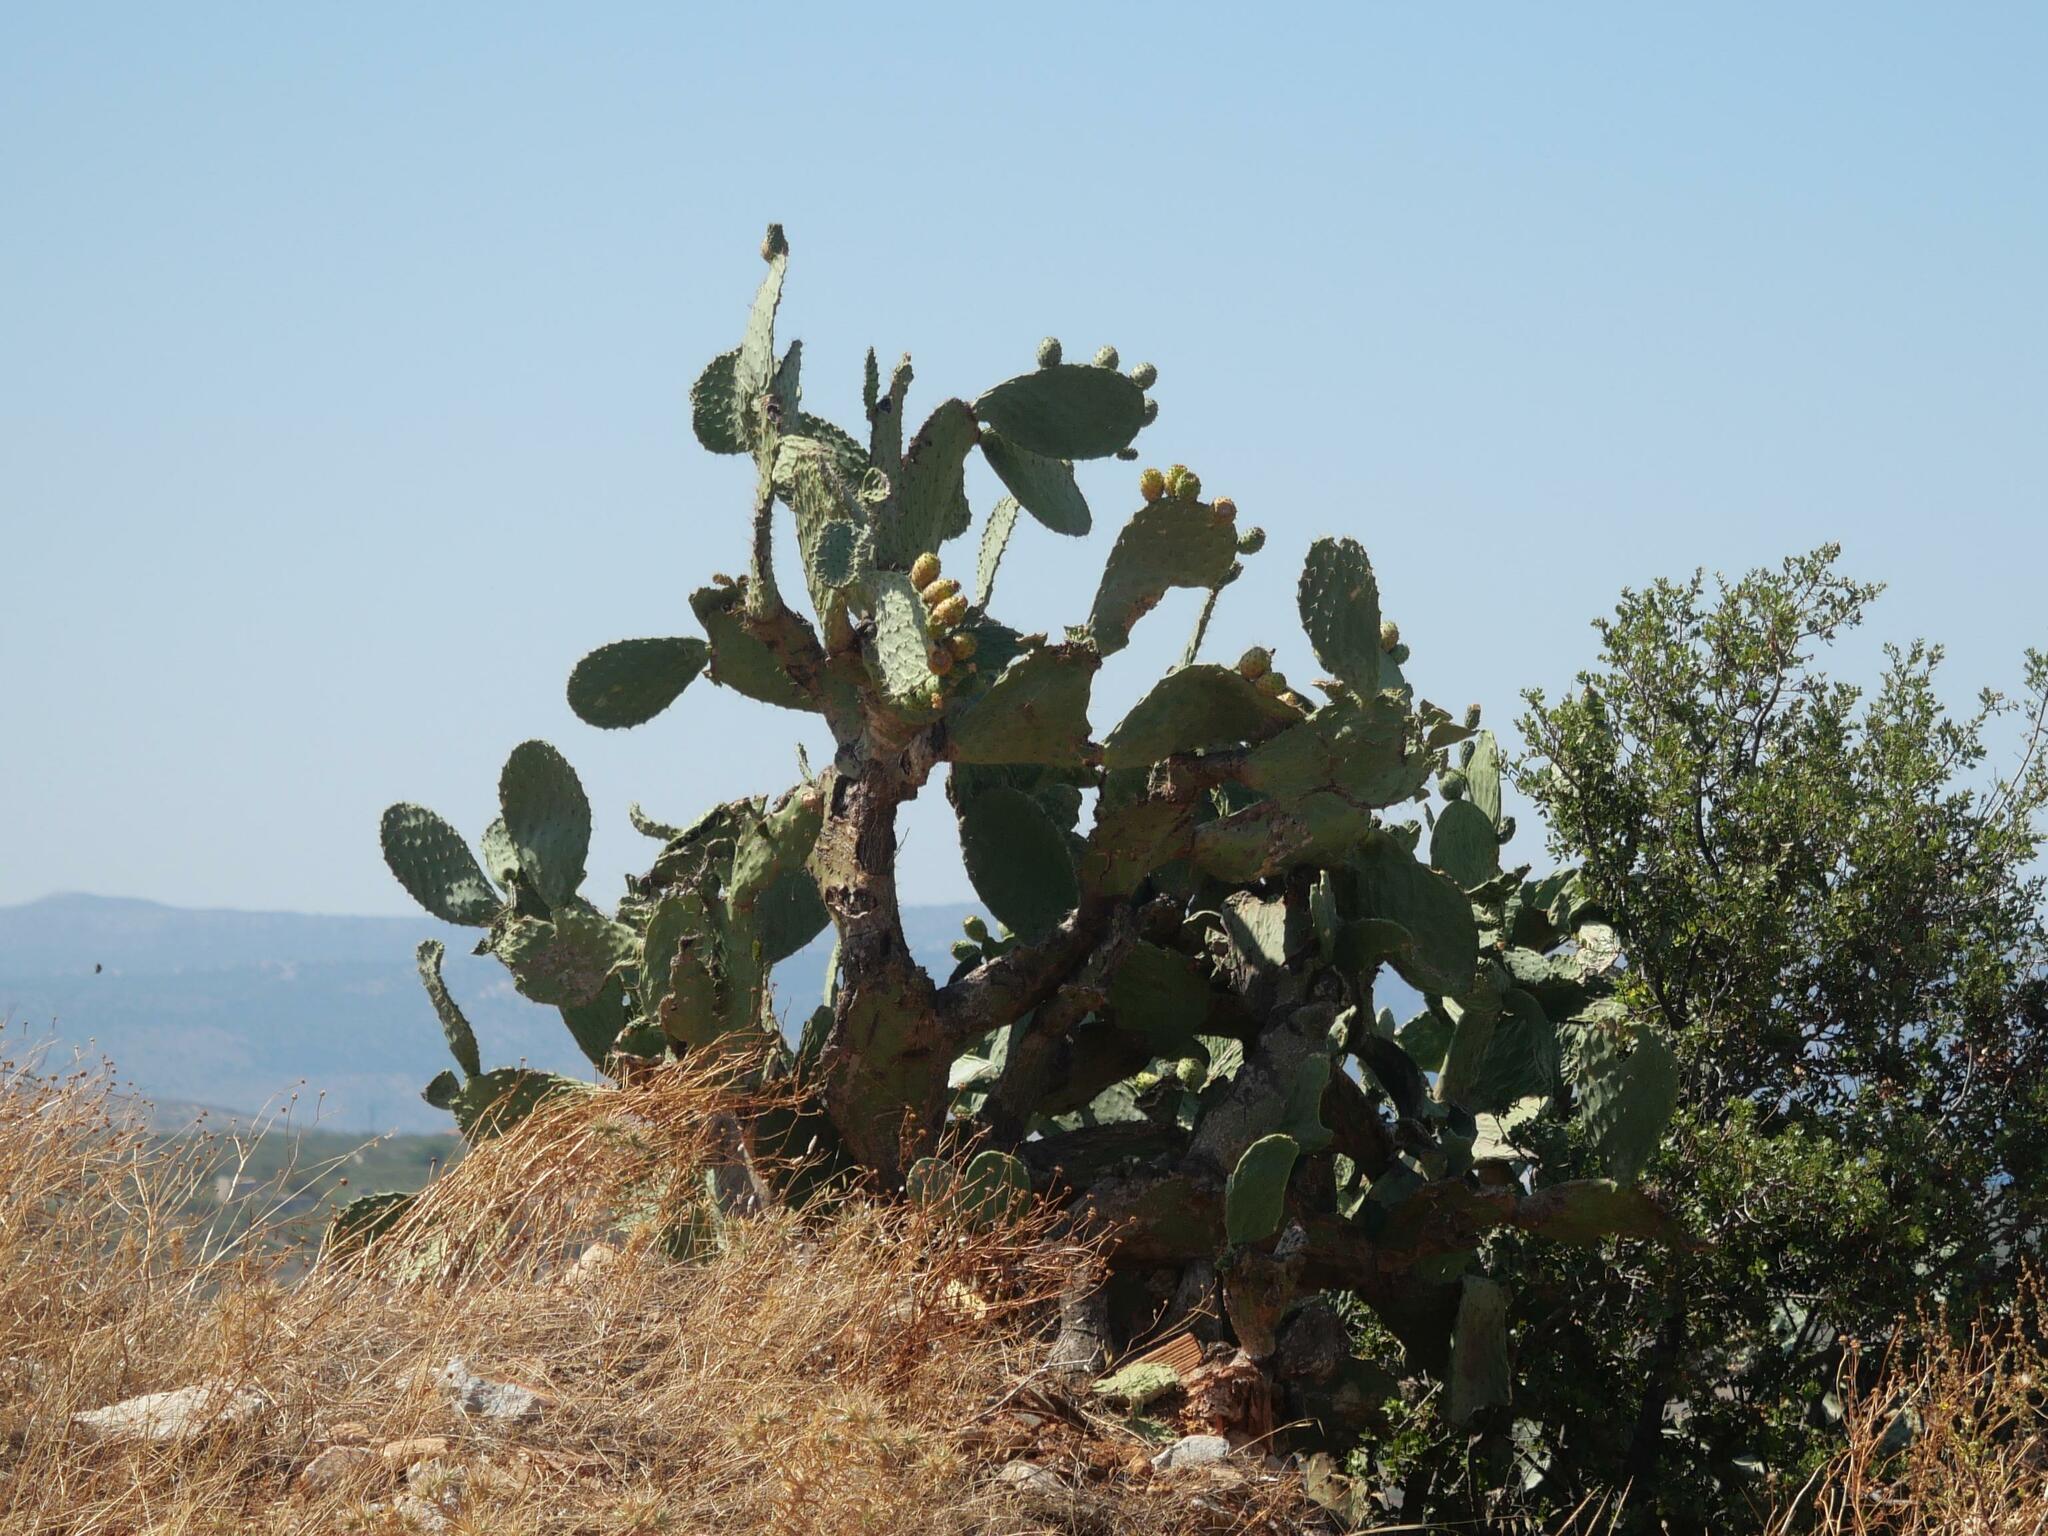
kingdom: Plantae
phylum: Tracheophyta
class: Magnoliopsida
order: Caryophyllales
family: Cactaceae
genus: Opuntia
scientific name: Opuntia ficus-indica
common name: Barbary fig
